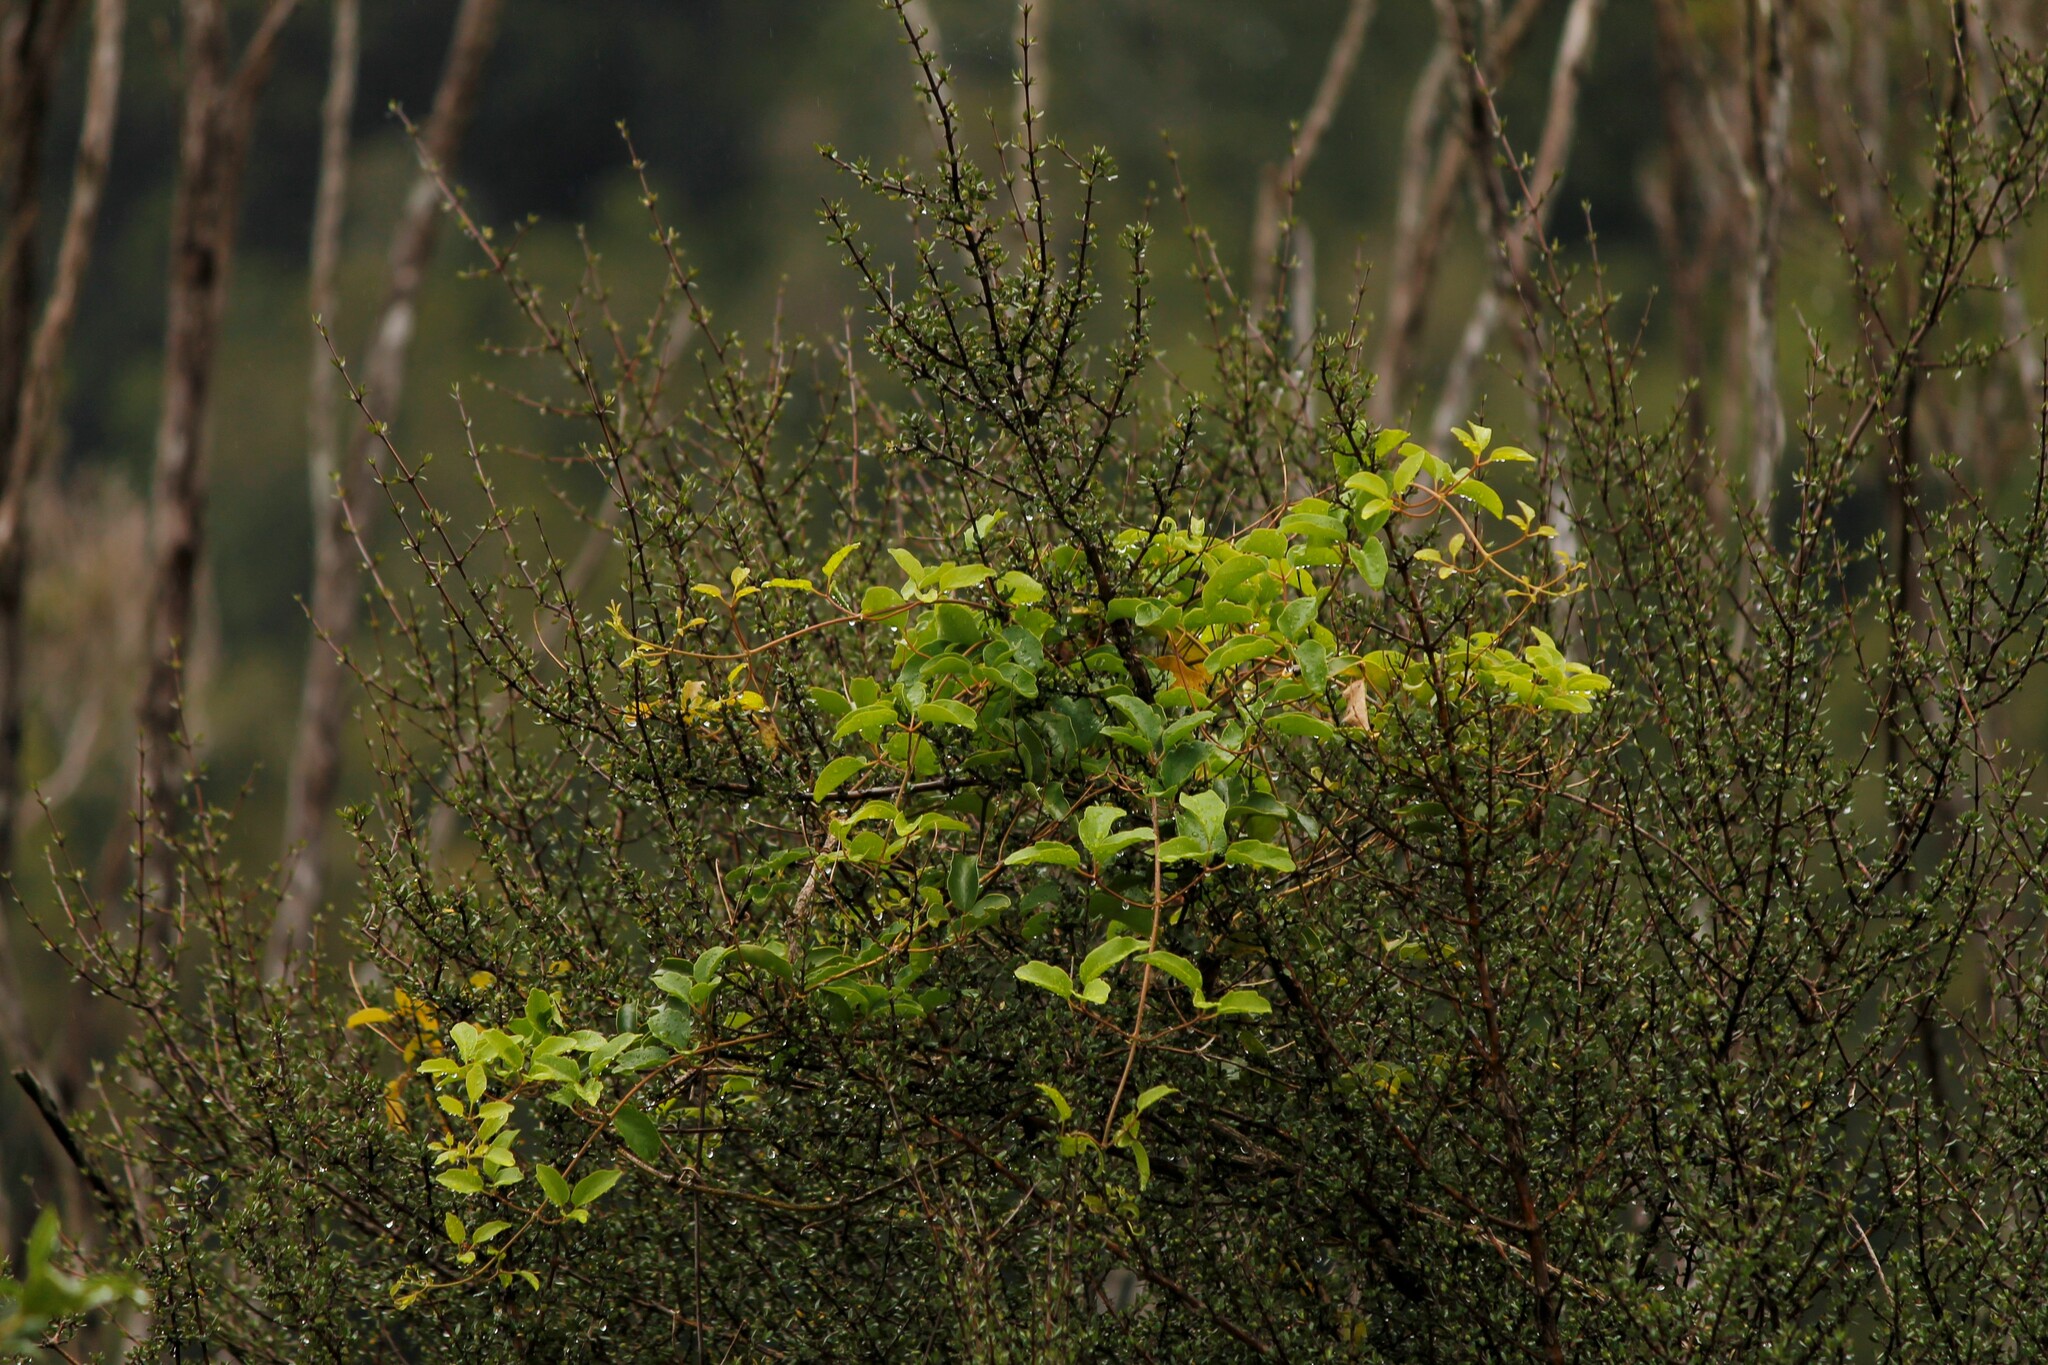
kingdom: Plantae
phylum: Tracheophyta
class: Magnoliopsida
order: Ranunculales
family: Ranunculaceae
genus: Clematis
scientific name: Clematis paniculata
